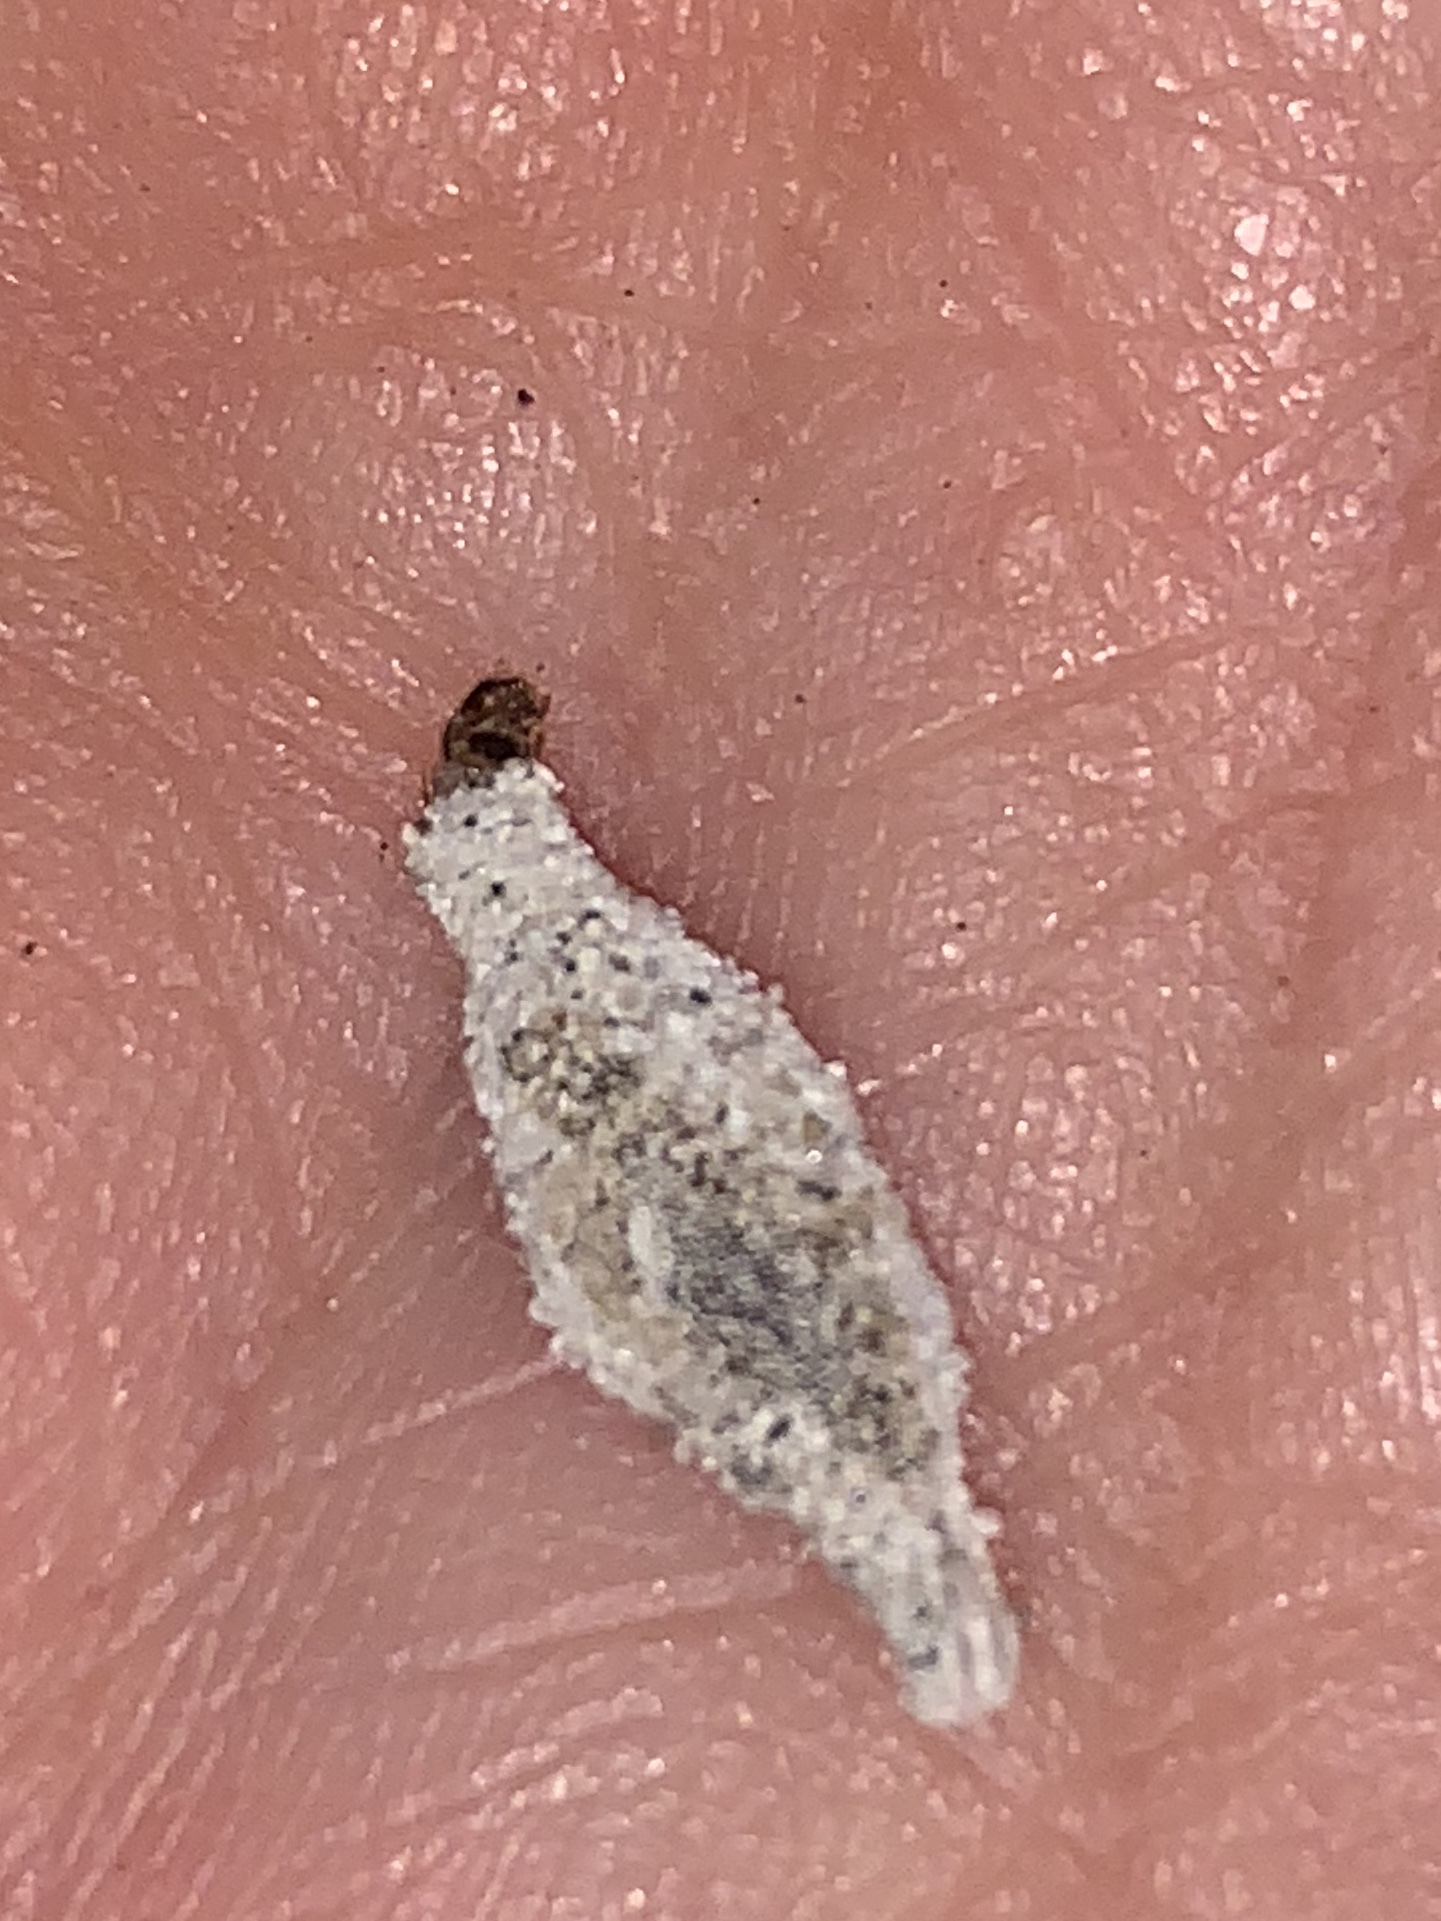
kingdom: Animalia
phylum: Arthropoda
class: Insecta
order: Lepidoptera
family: Tineidae
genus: Phereoeca
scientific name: Phereoeca uterella
